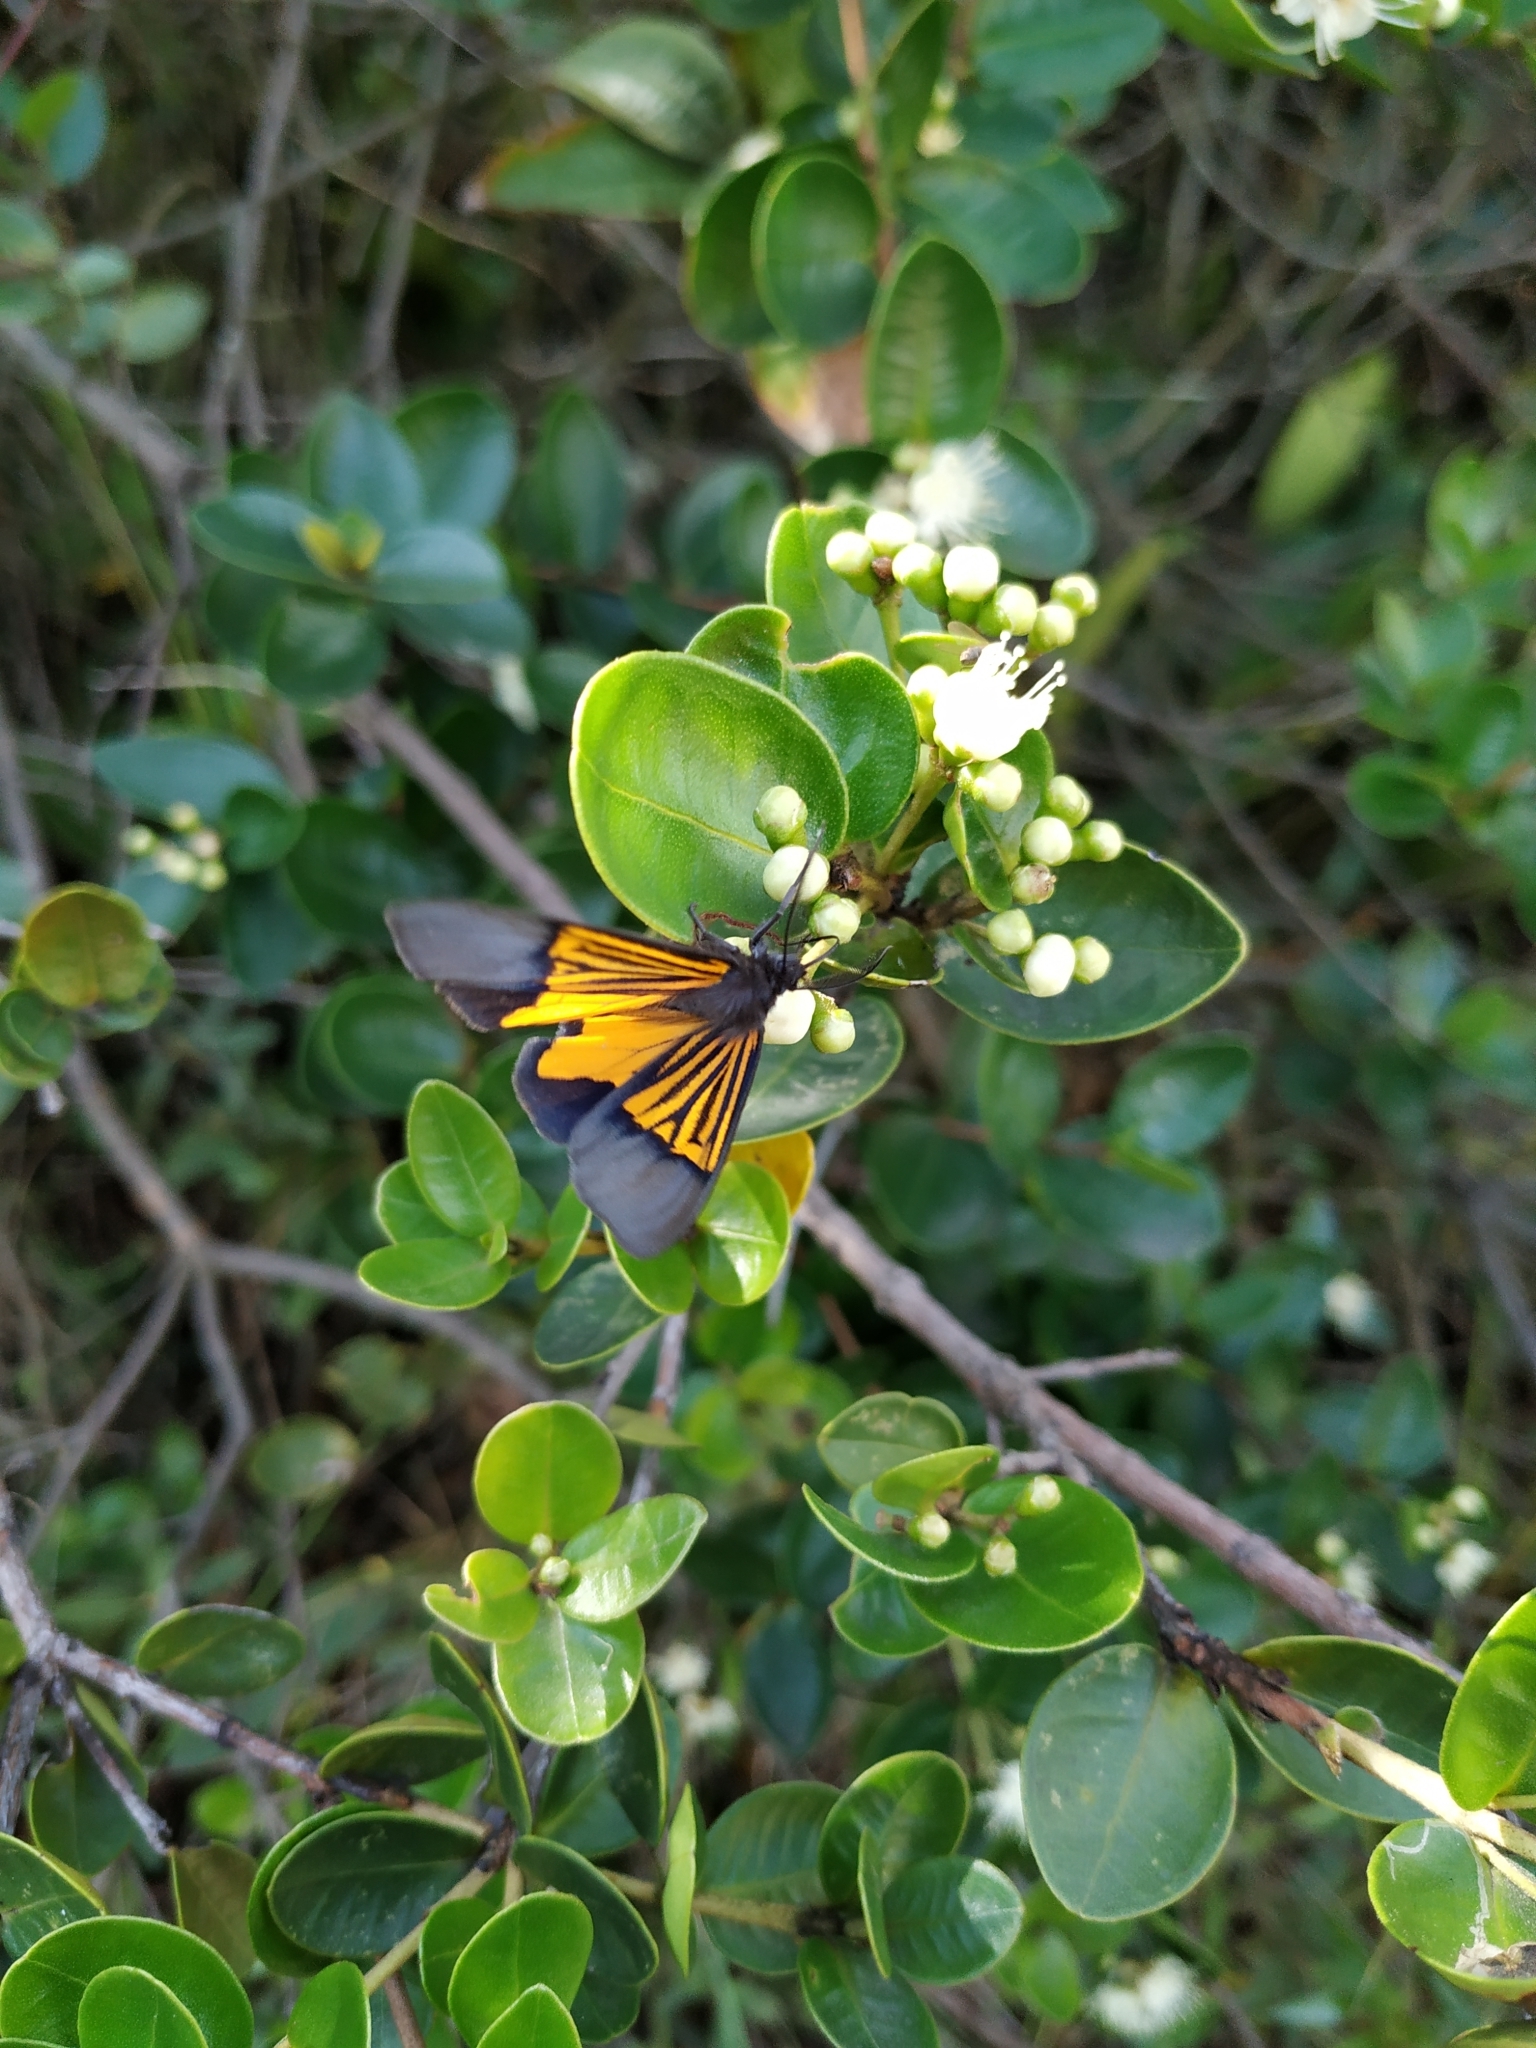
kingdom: Animalia
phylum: Arthropoda
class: Insecta
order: Lepidoptera
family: Notodontidae
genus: Scea
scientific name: Scea
